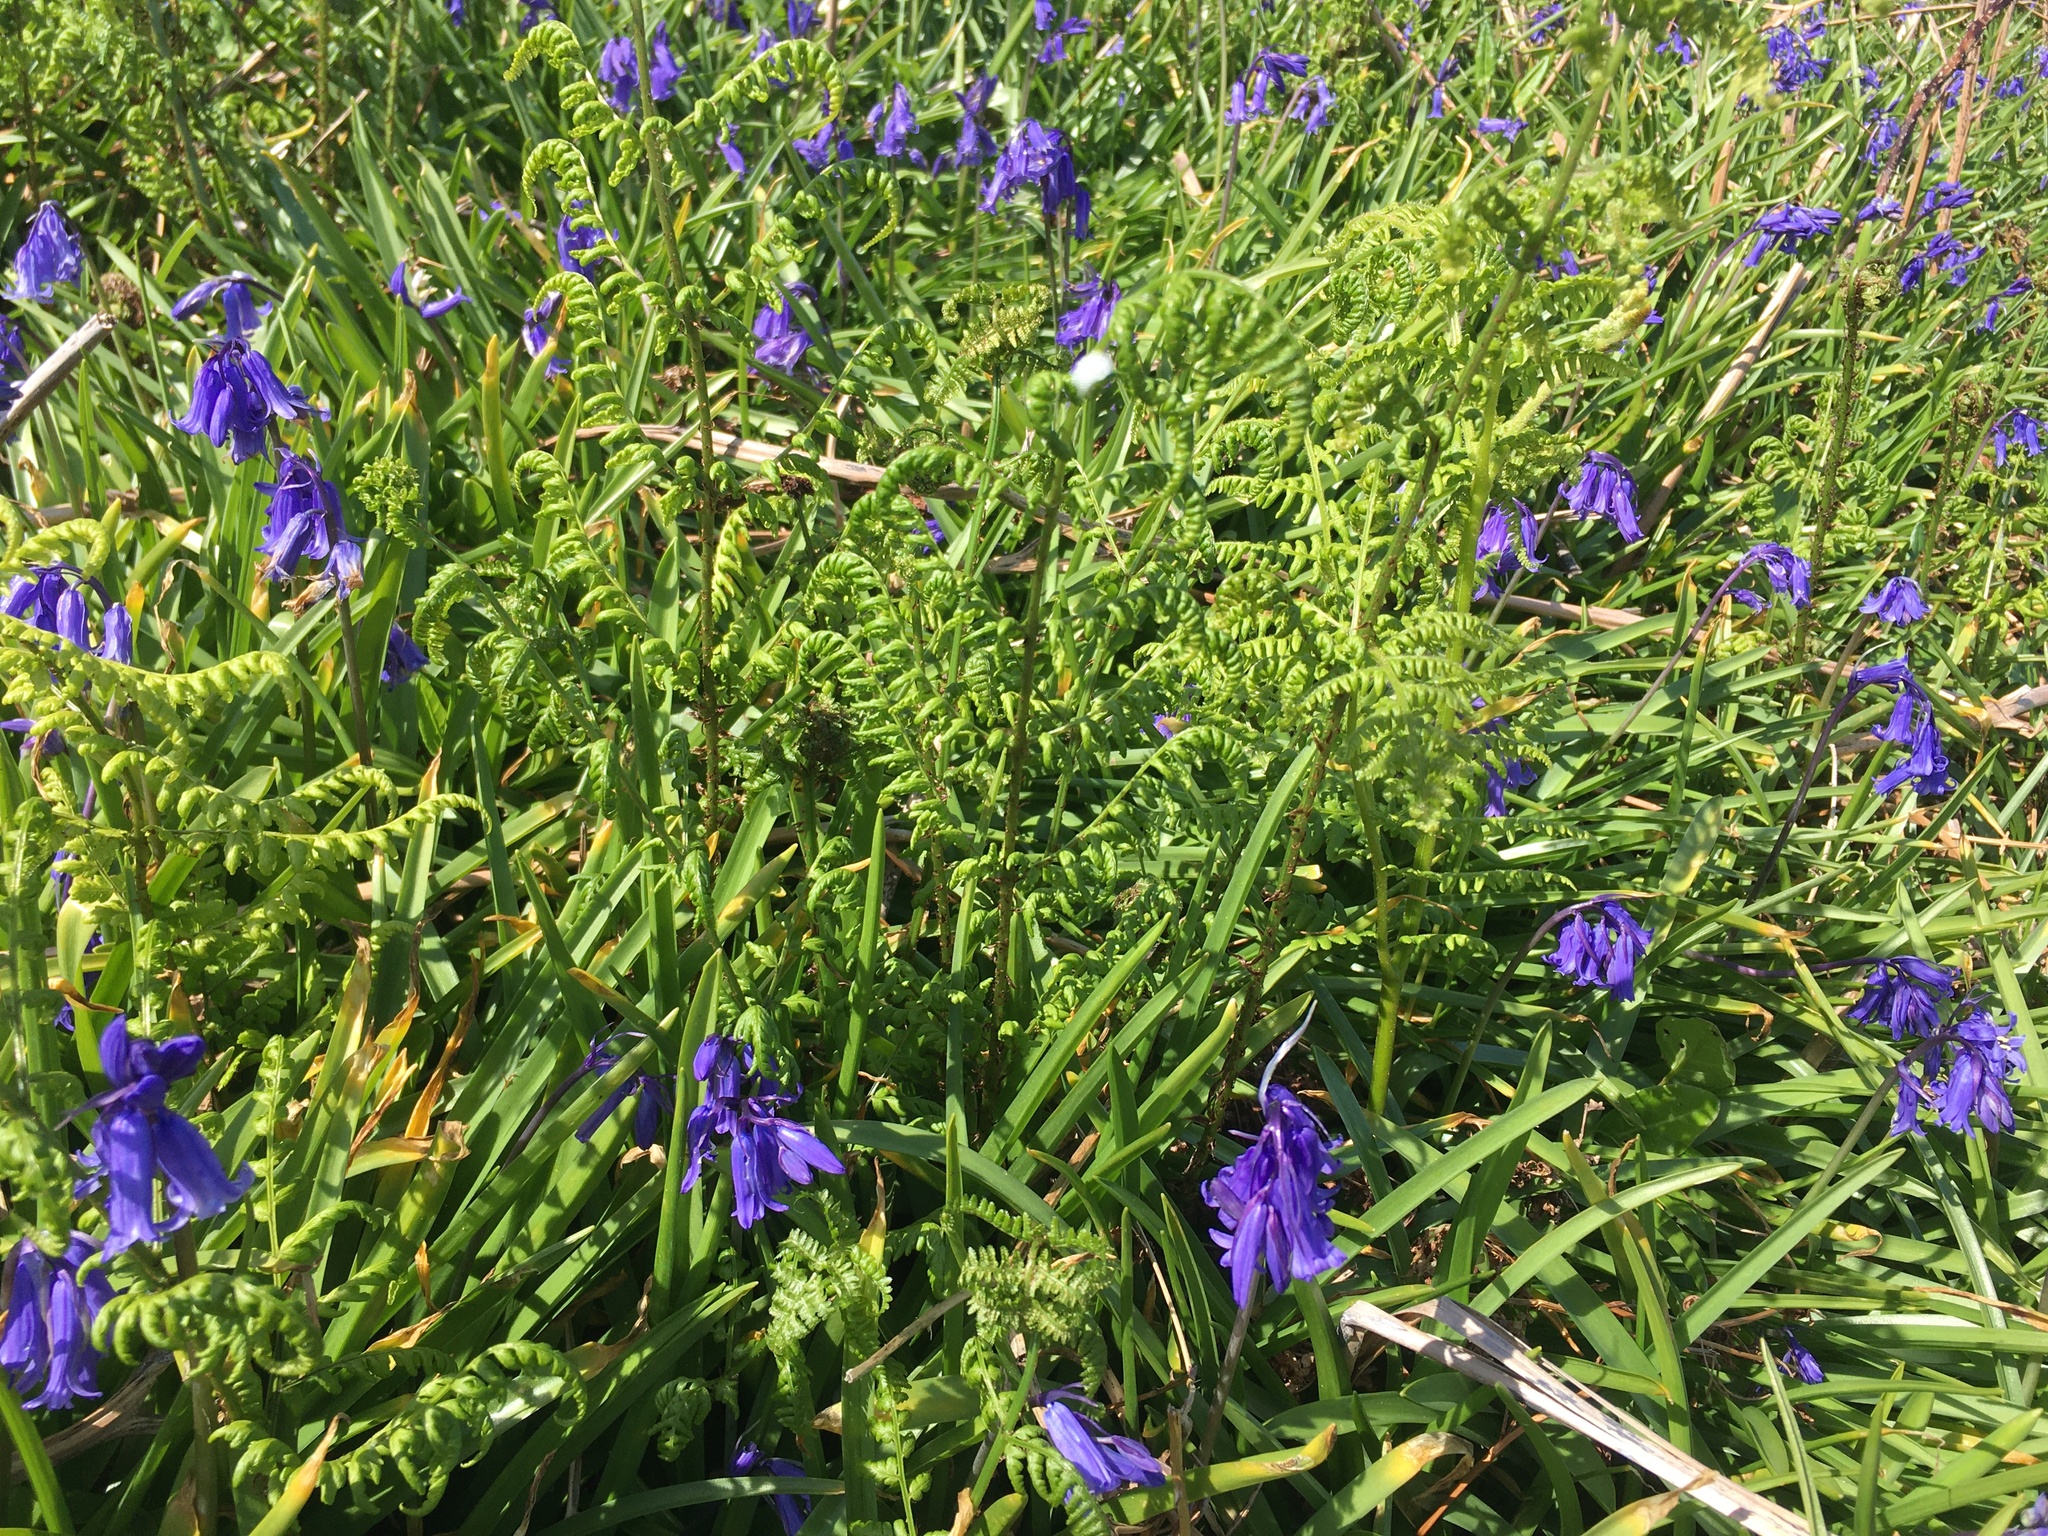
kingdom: Plantae
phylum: Tracheophyta
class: Polypodiopsida
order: Polypodiales
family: Dennstaedtiaceae
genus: Pteridium
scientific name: Pteridium aquilinum
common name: Bracken
